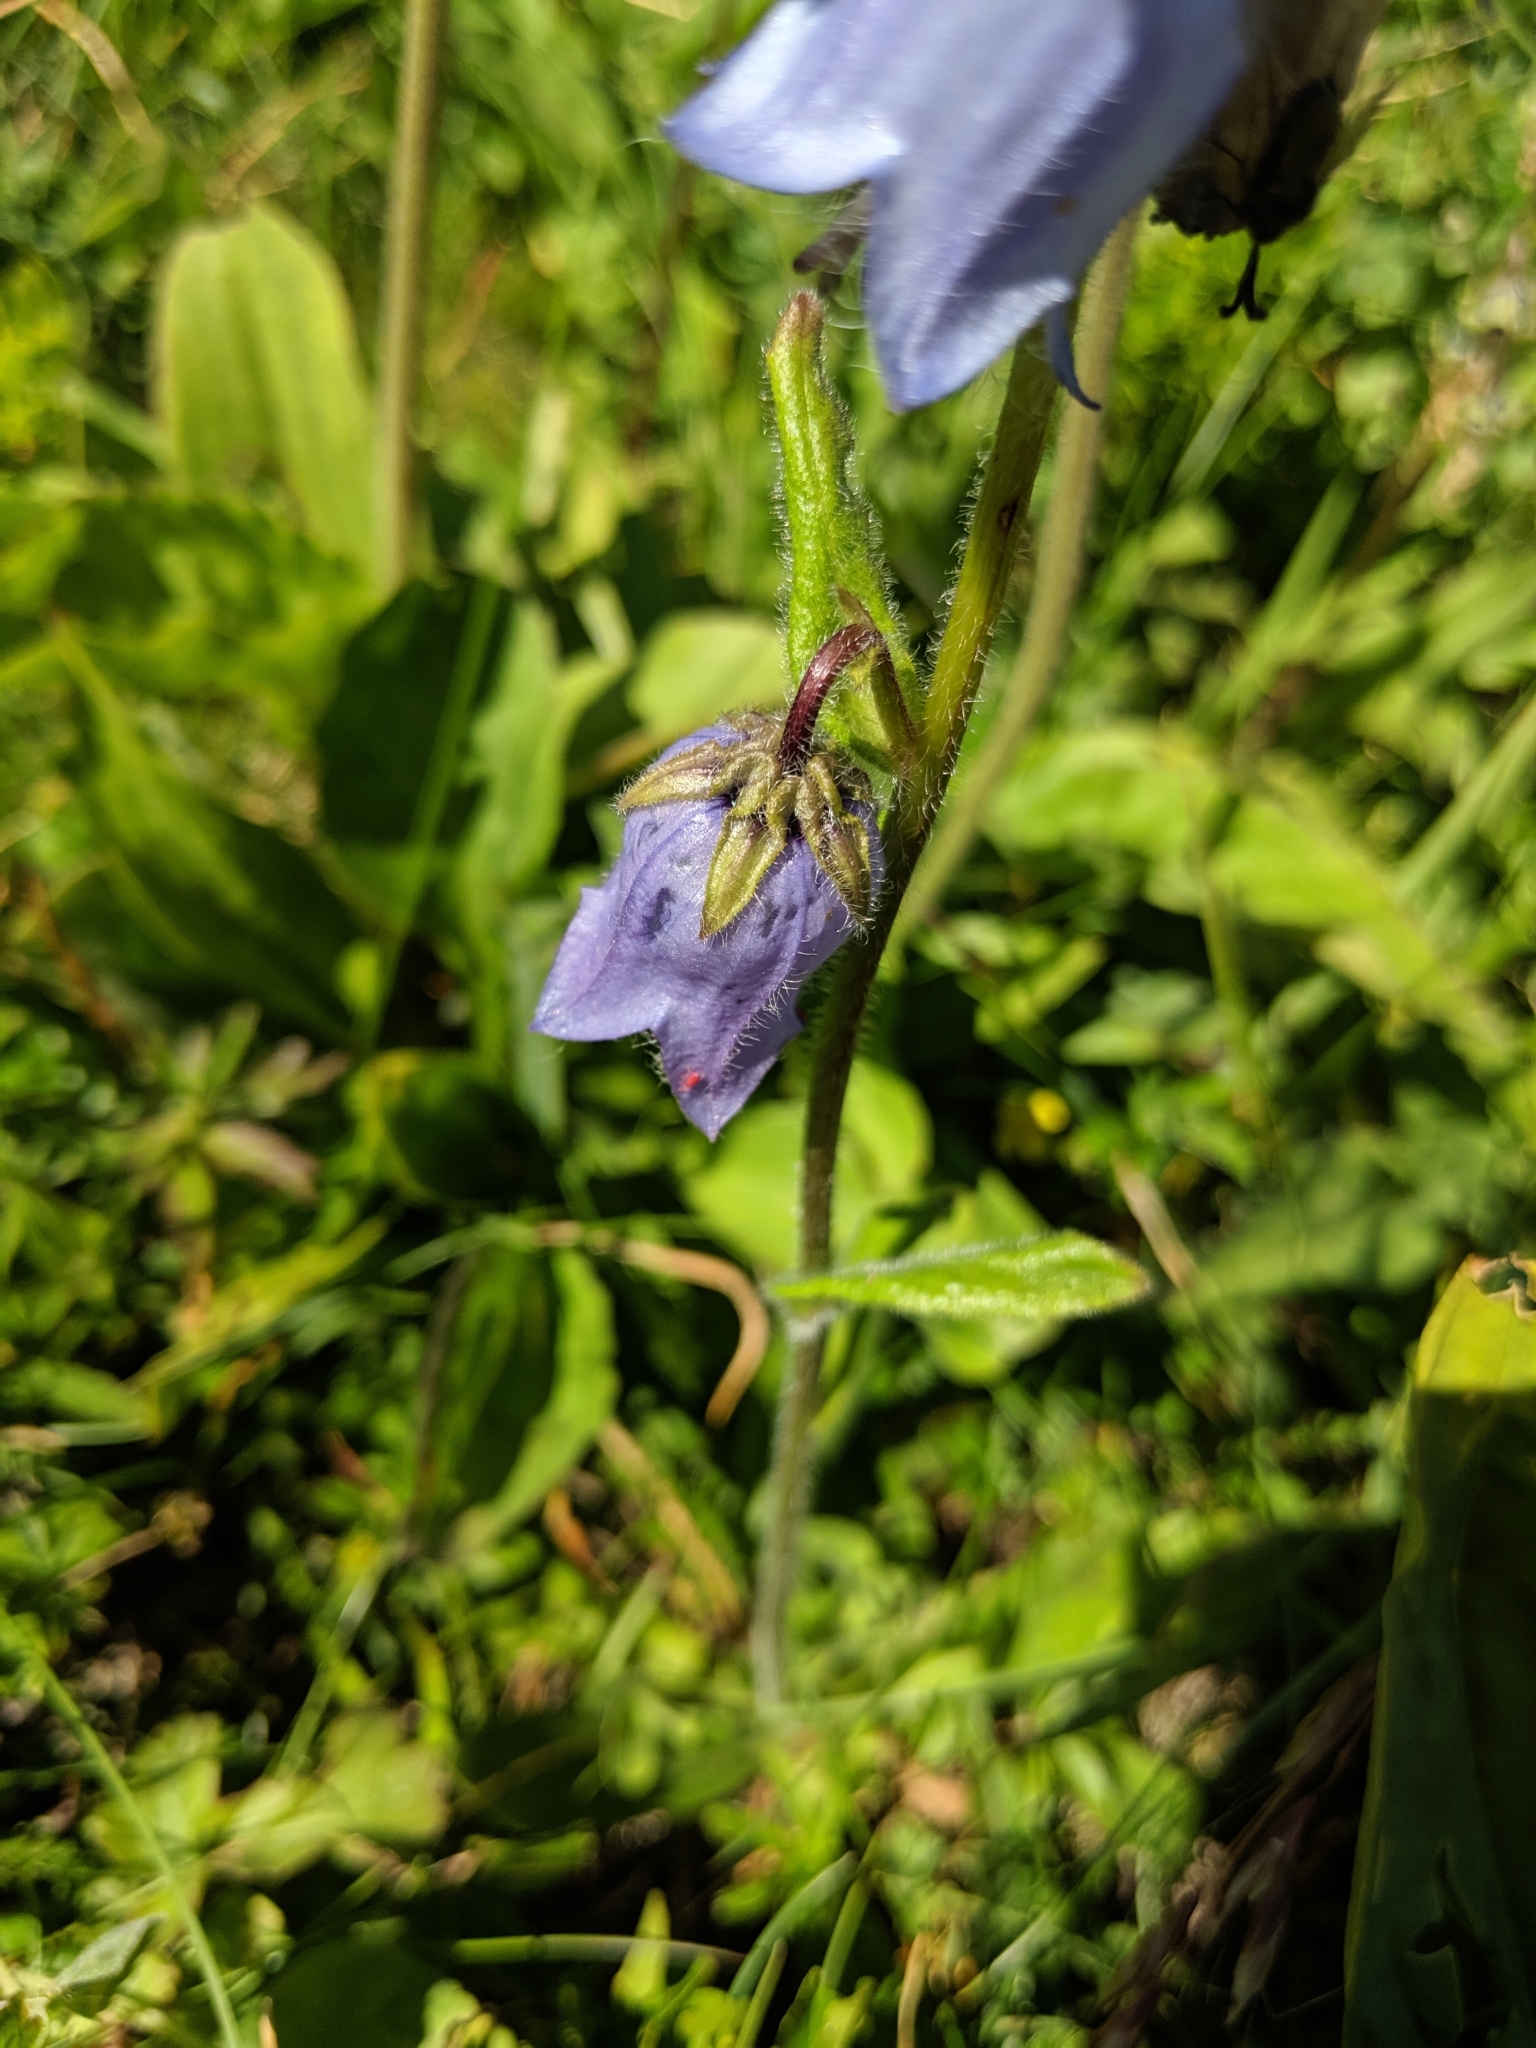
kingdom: Plantae
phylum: Tracheophyta
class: Magnoliopsida
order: Asterales
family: Campanulaceae
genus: Campanula
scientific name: Campanula barbata
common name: Bearded bellflower
